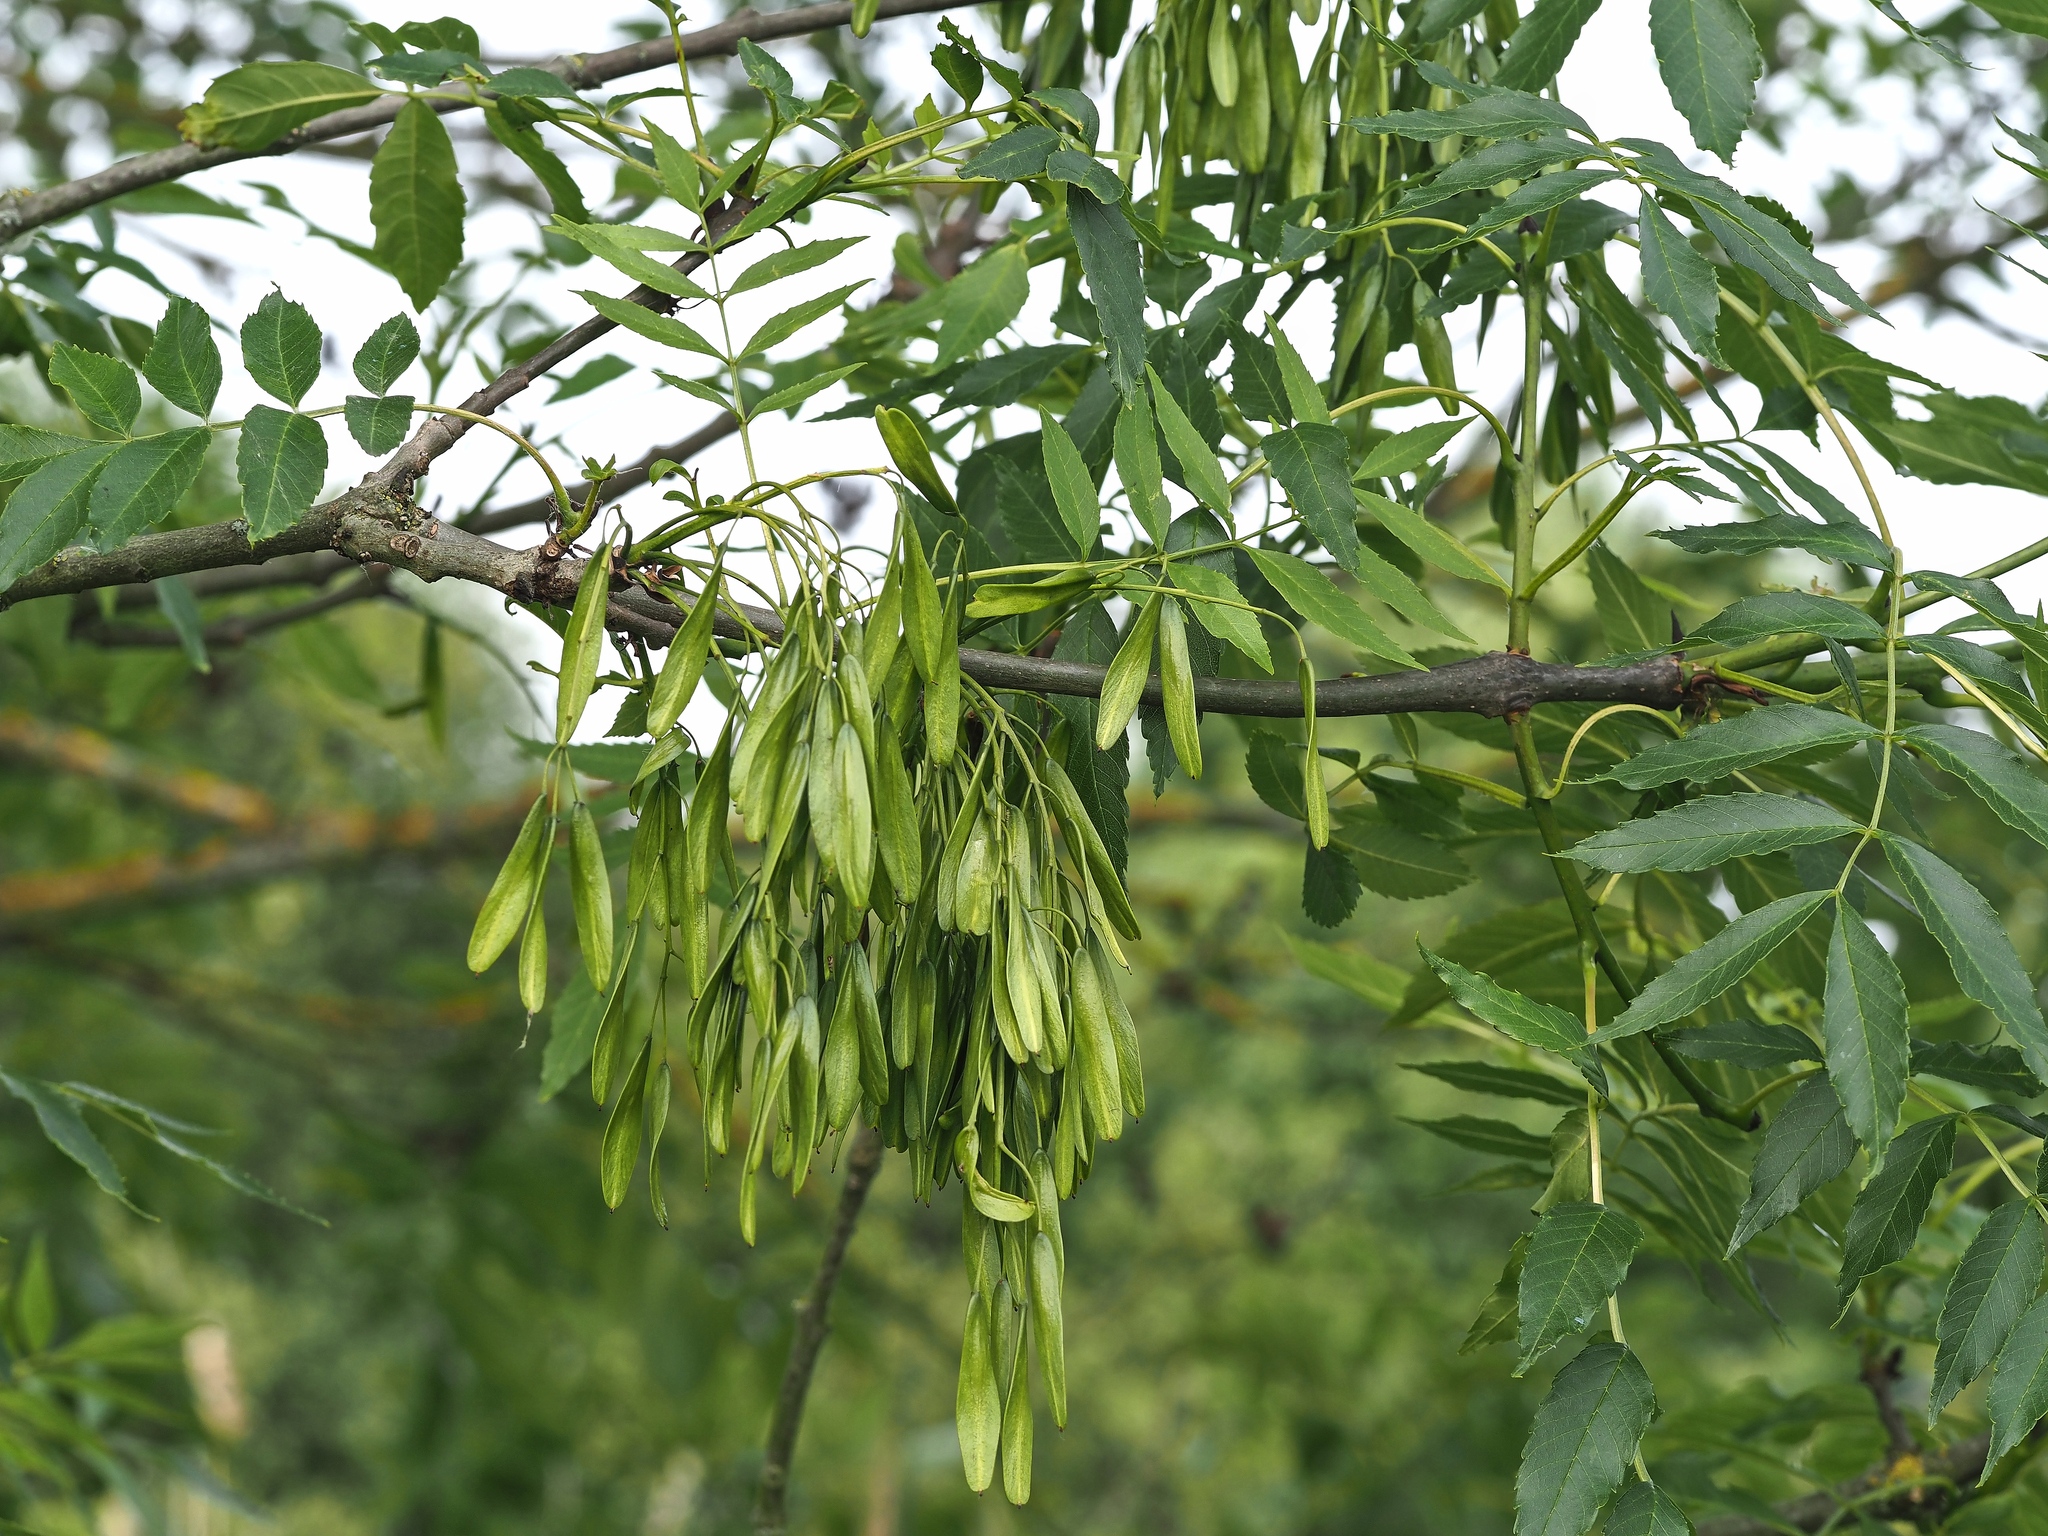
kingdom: Plantae
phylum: Tracheophyta
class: Magnoliopsida
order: Lamiales
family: Oleaceae
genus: Fraxinus
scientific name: Fraxinus excelsior
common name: European ash
